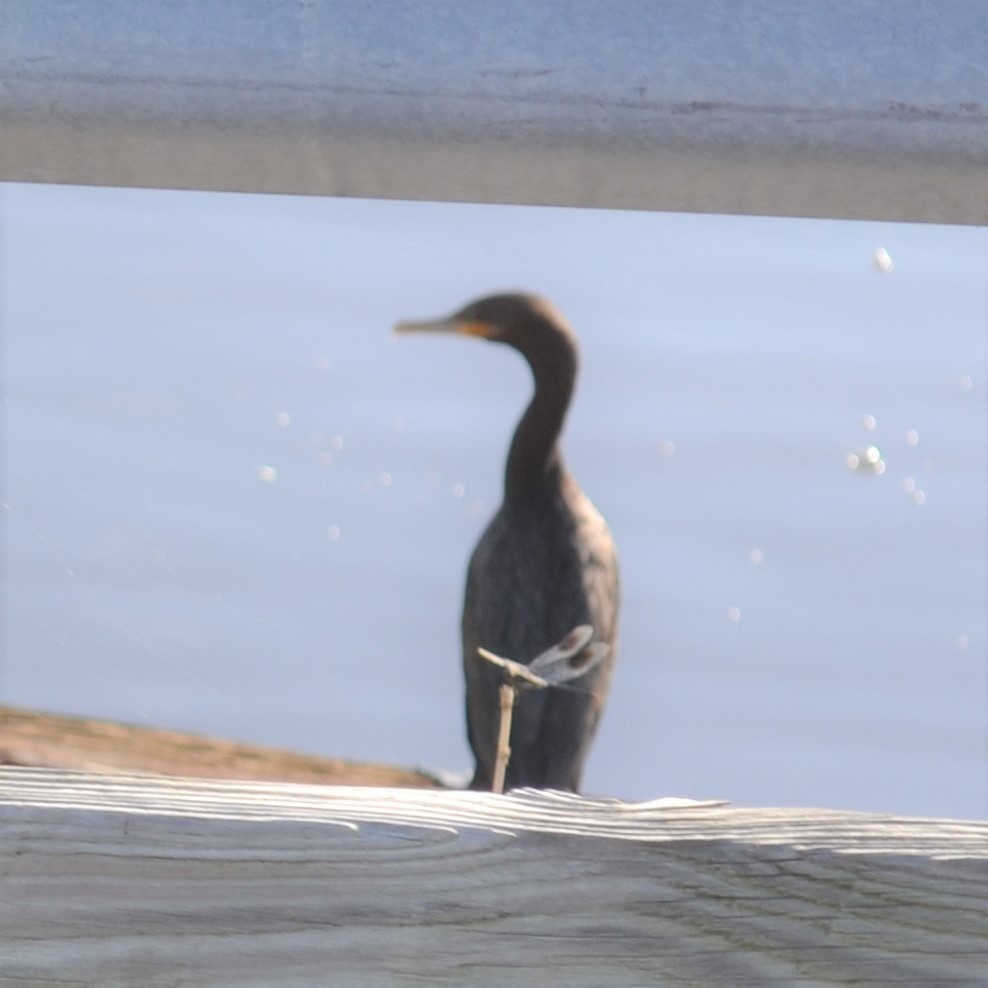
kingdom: Animalia
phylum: Chordata
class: Aves
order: Suliformes
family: Phalacrocoracidae
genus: Phalacrocorax
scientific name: Phalacrocorax brasilianus
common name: Neotropic cormorant
